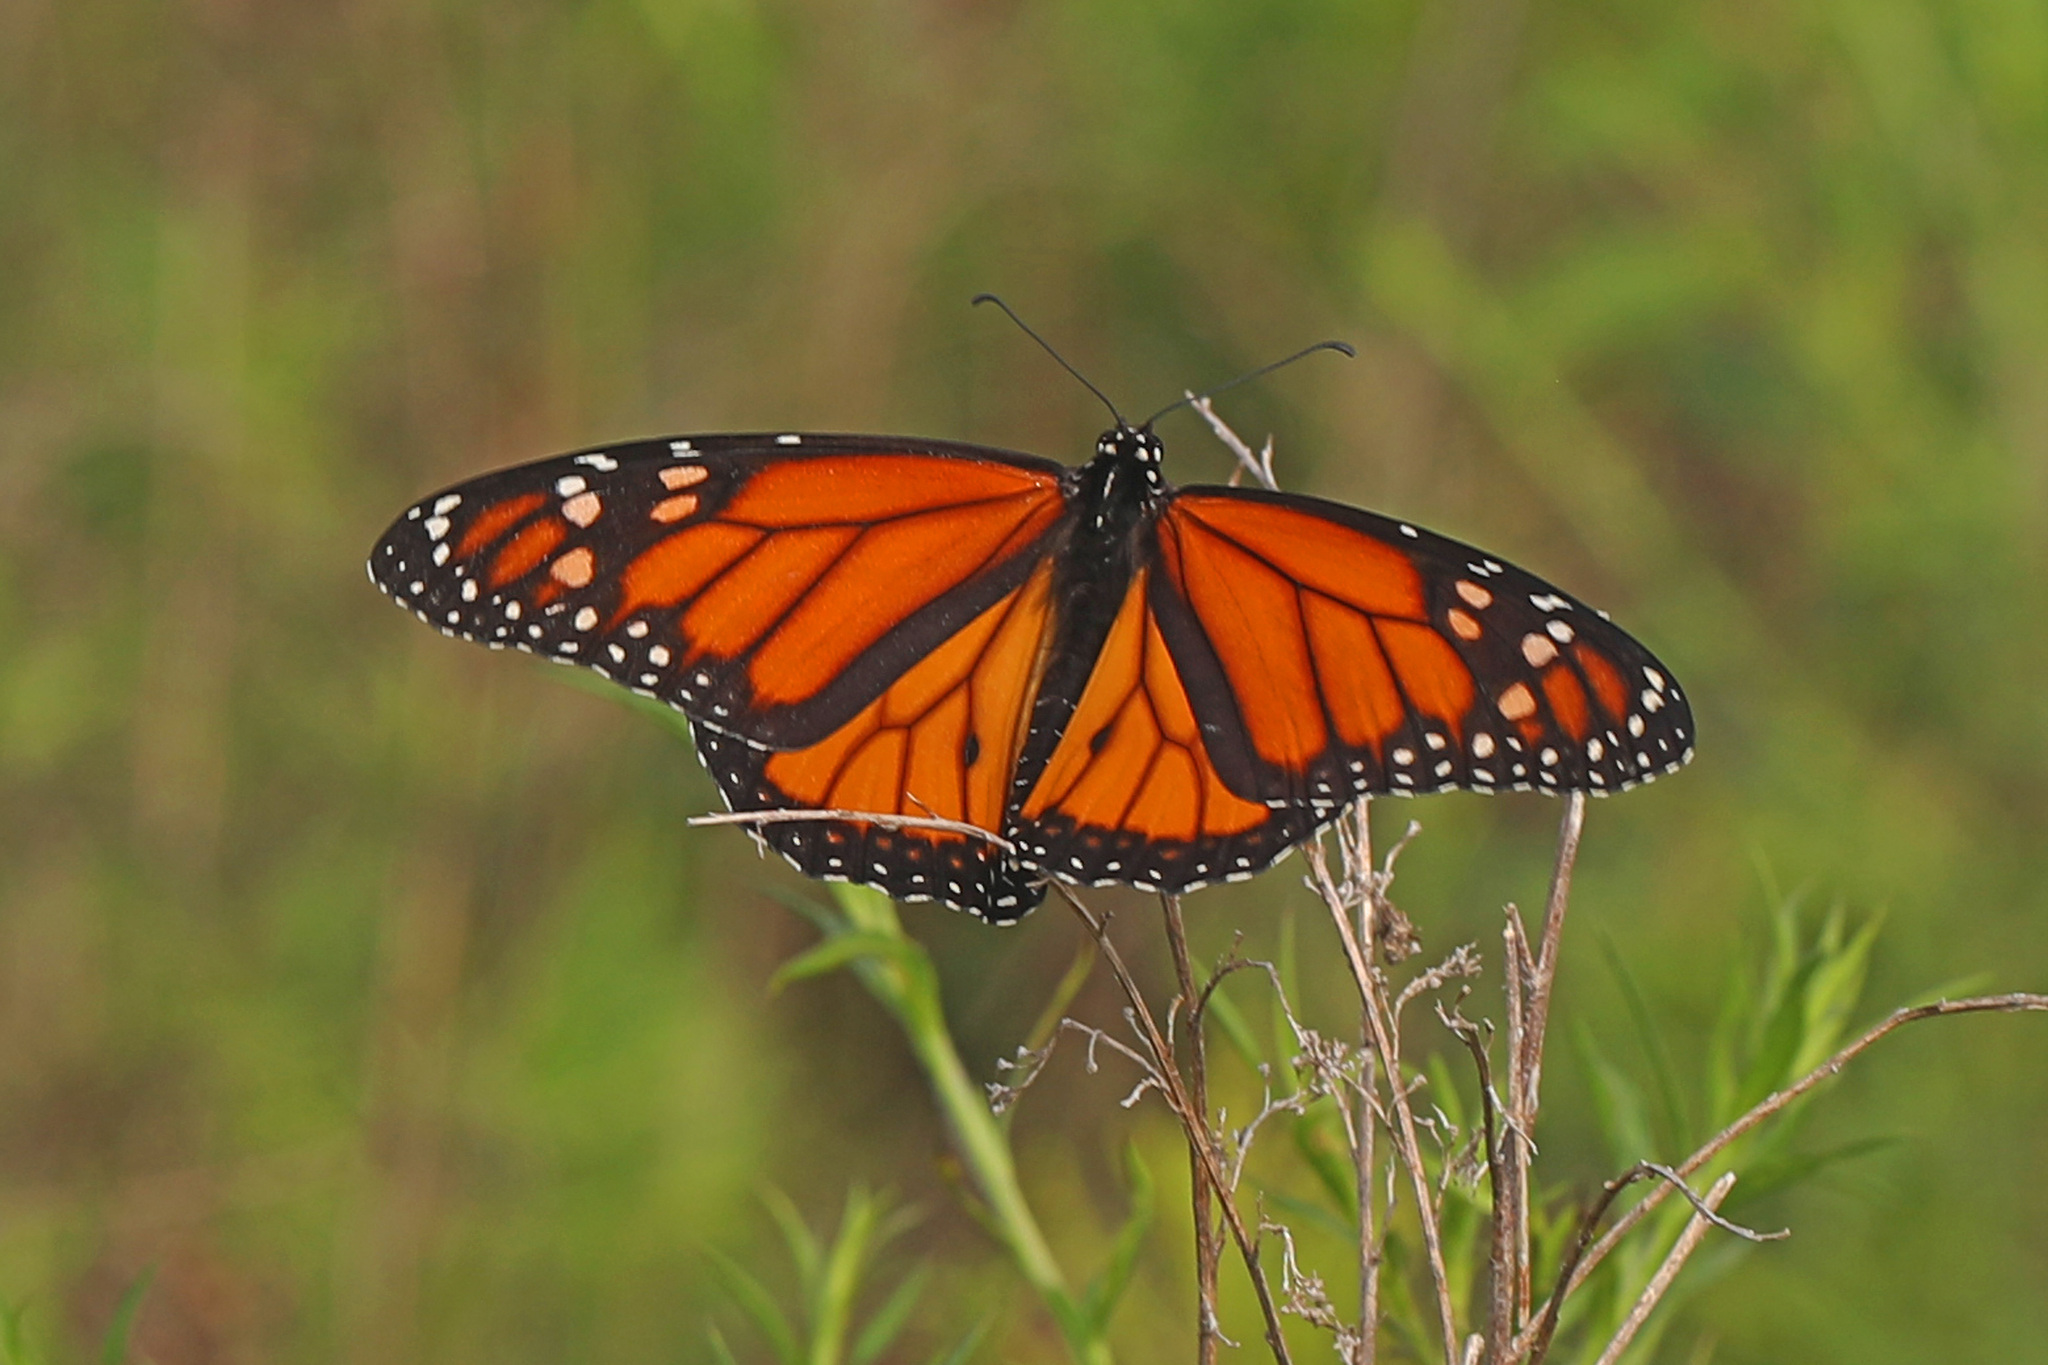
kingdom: Animalia
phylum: Arthropoda
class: Insecta
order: Lepidoptera
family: Nymphalidae
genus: Danaus
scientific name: Danaus plexippus
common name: Monarch
